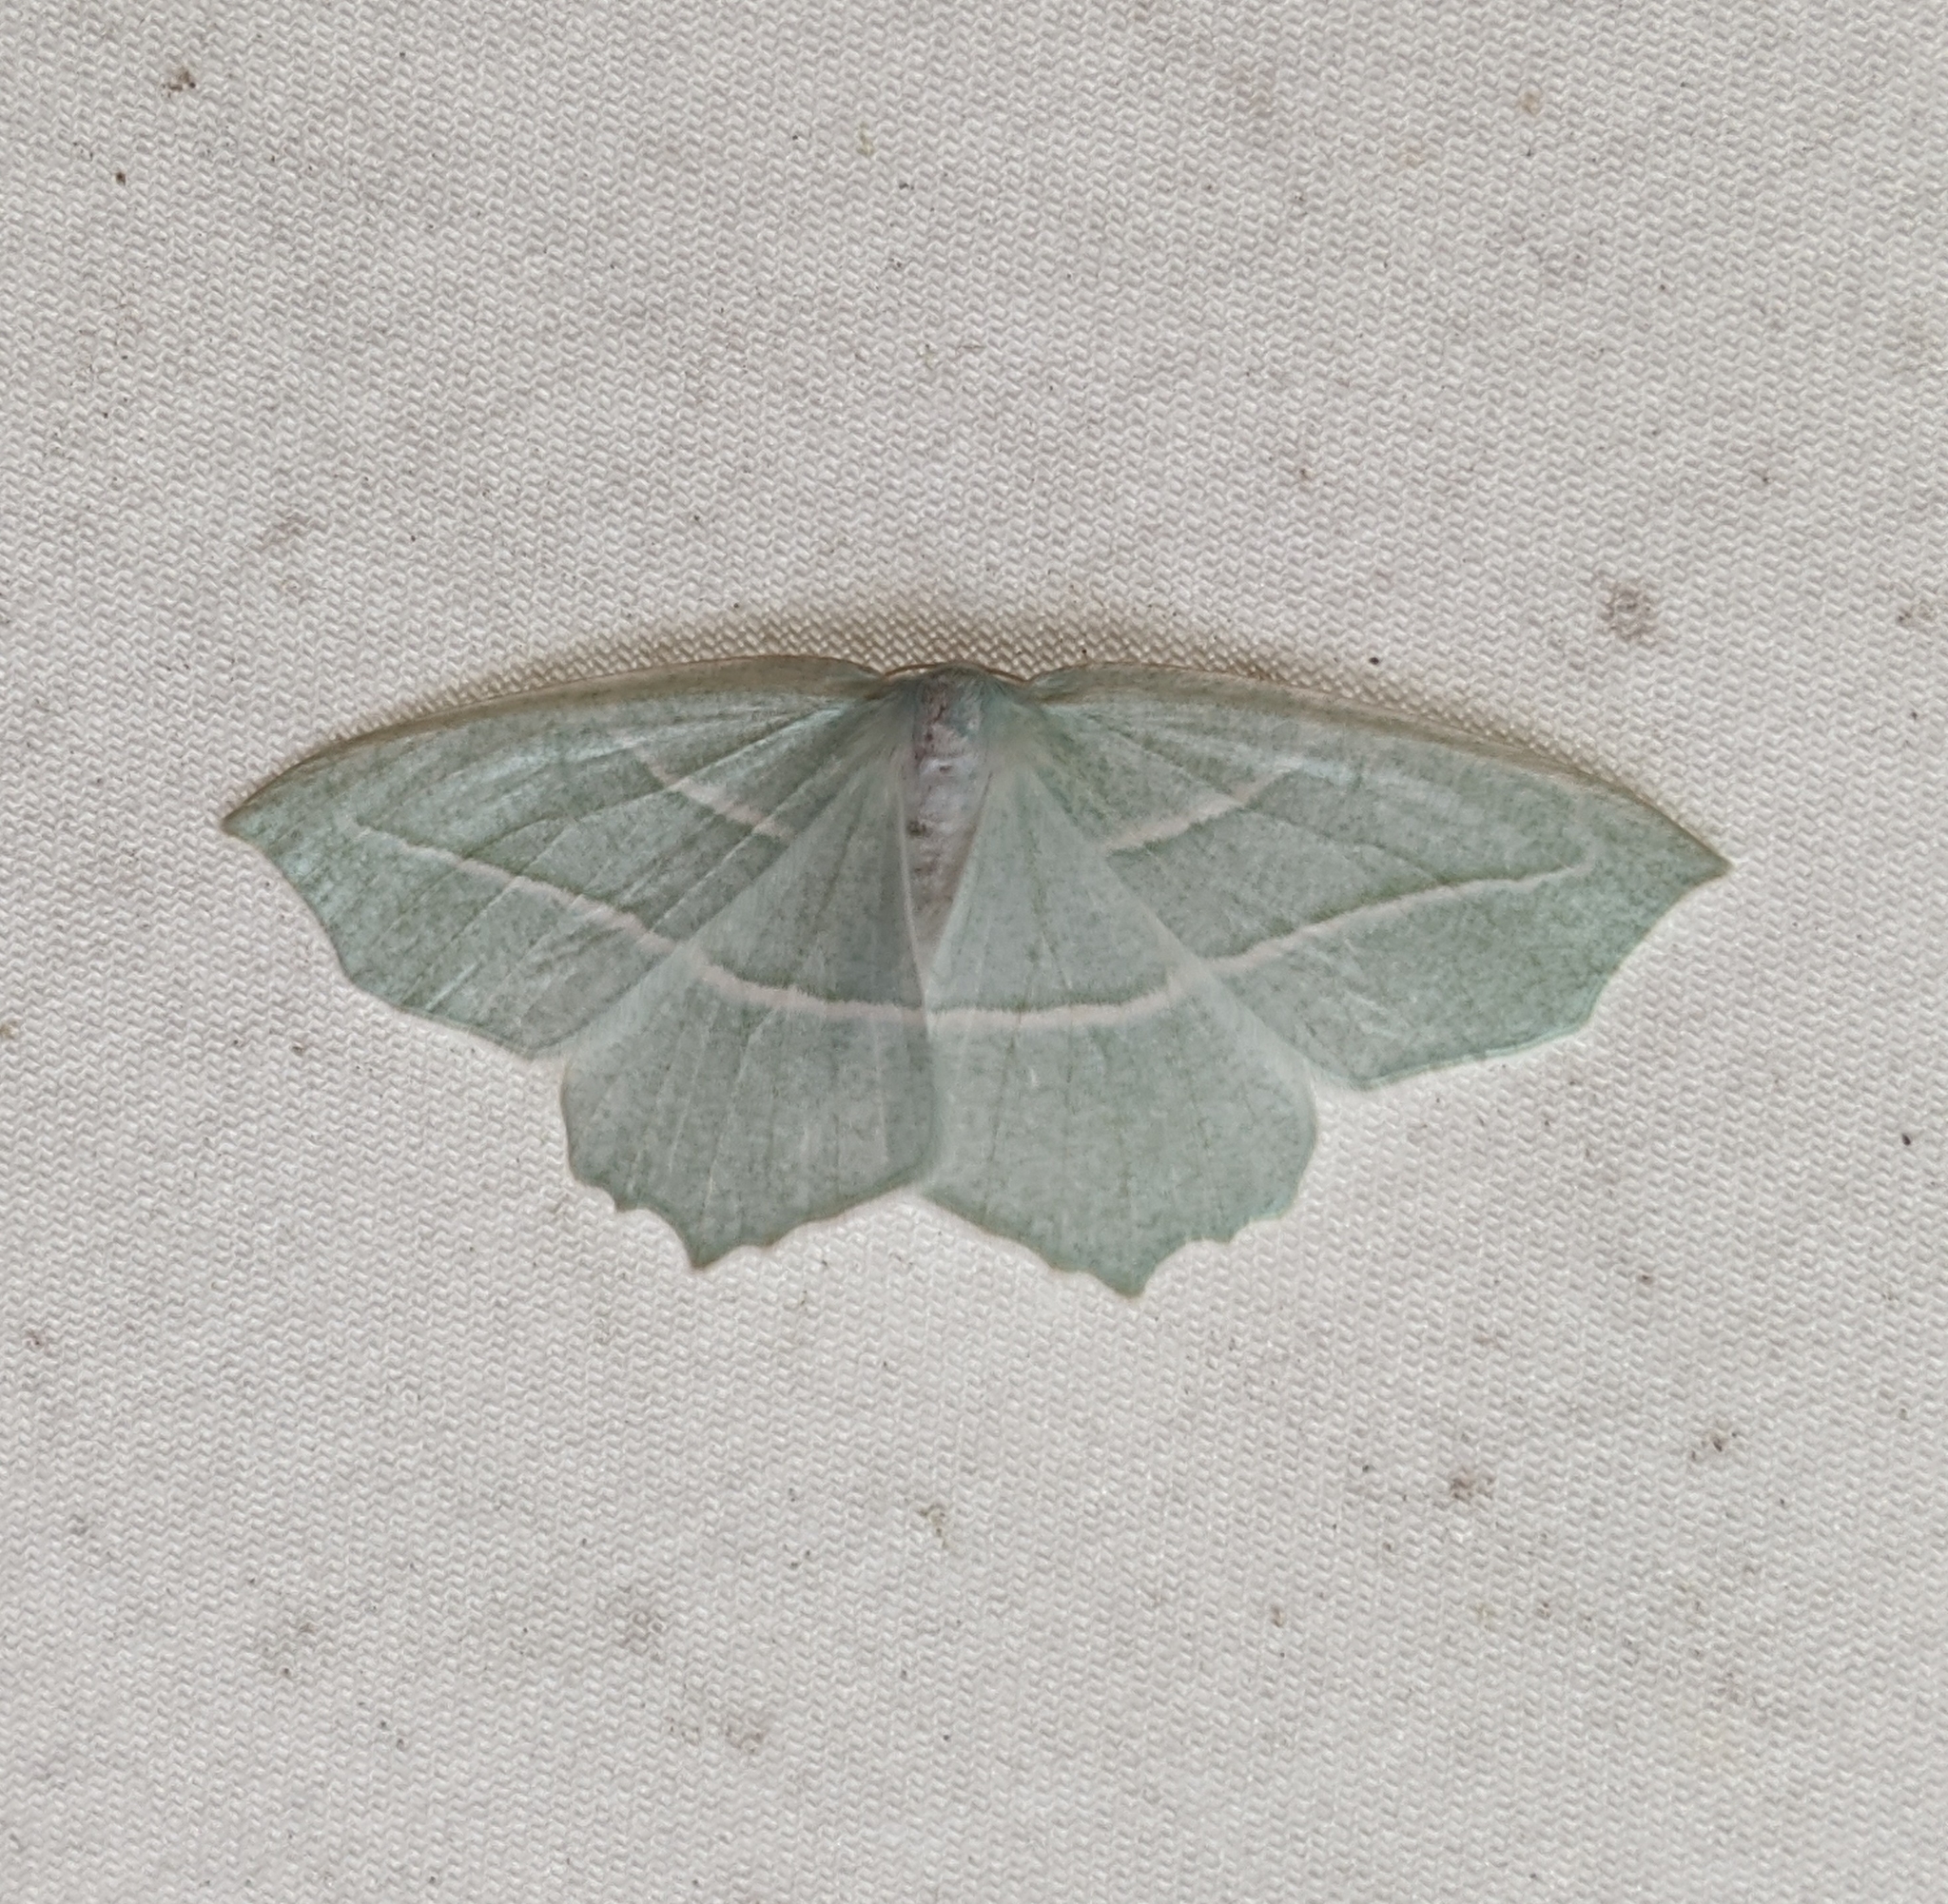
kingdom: Animalia
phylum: Arthropoda
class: Insecta
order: Lepidoptera
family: Geometridae
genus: Campaea
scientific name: Campaea perlata
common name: Fringed looper
